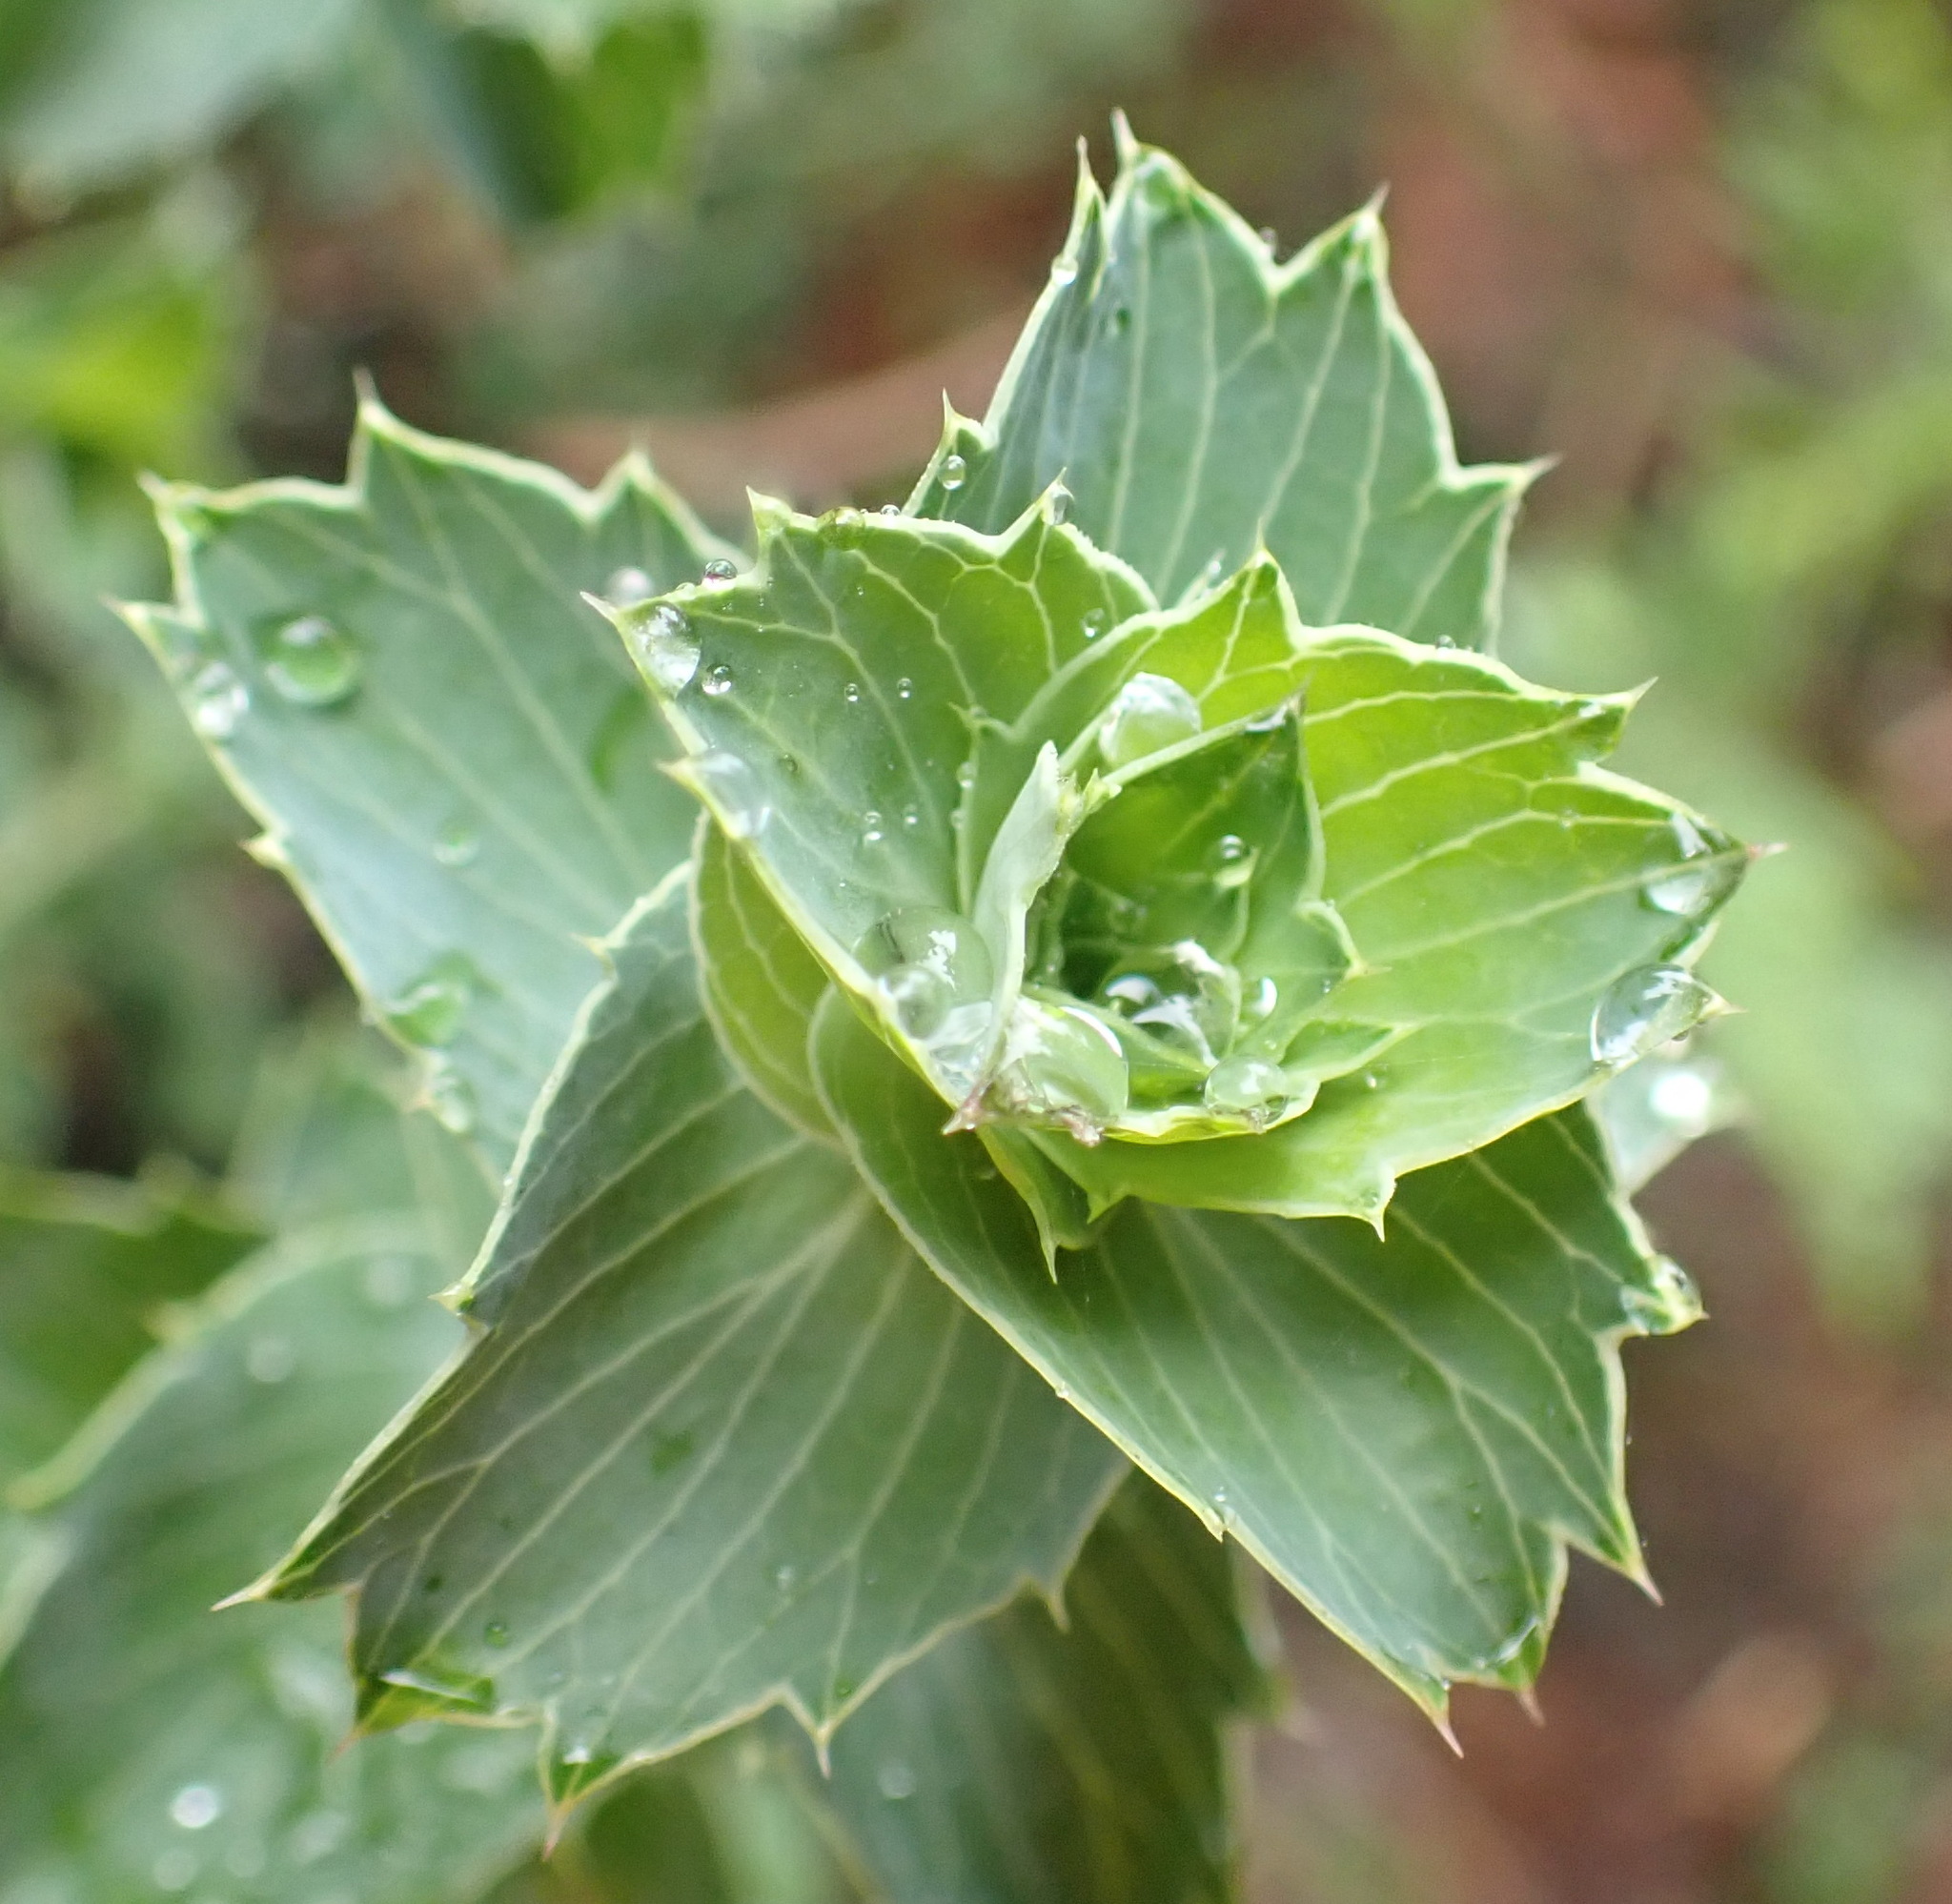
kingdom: Plantae
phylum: Tracheophyta
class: Magnoliopsida
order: Rosales
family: Rosaceae
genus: Cliffortia
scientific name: Cliffortia ilicifolia
